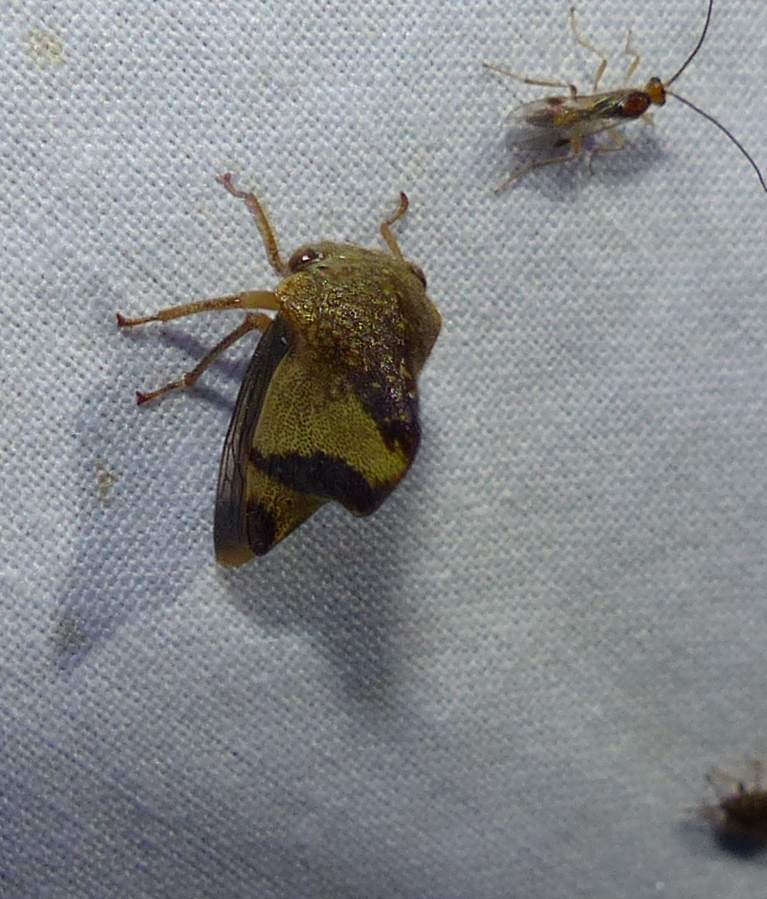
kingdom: Animalia
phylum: Arthropoda
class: Insecta
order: Hemiptera
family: Membracidae
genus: Helonica
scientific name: Helonica excelsa
